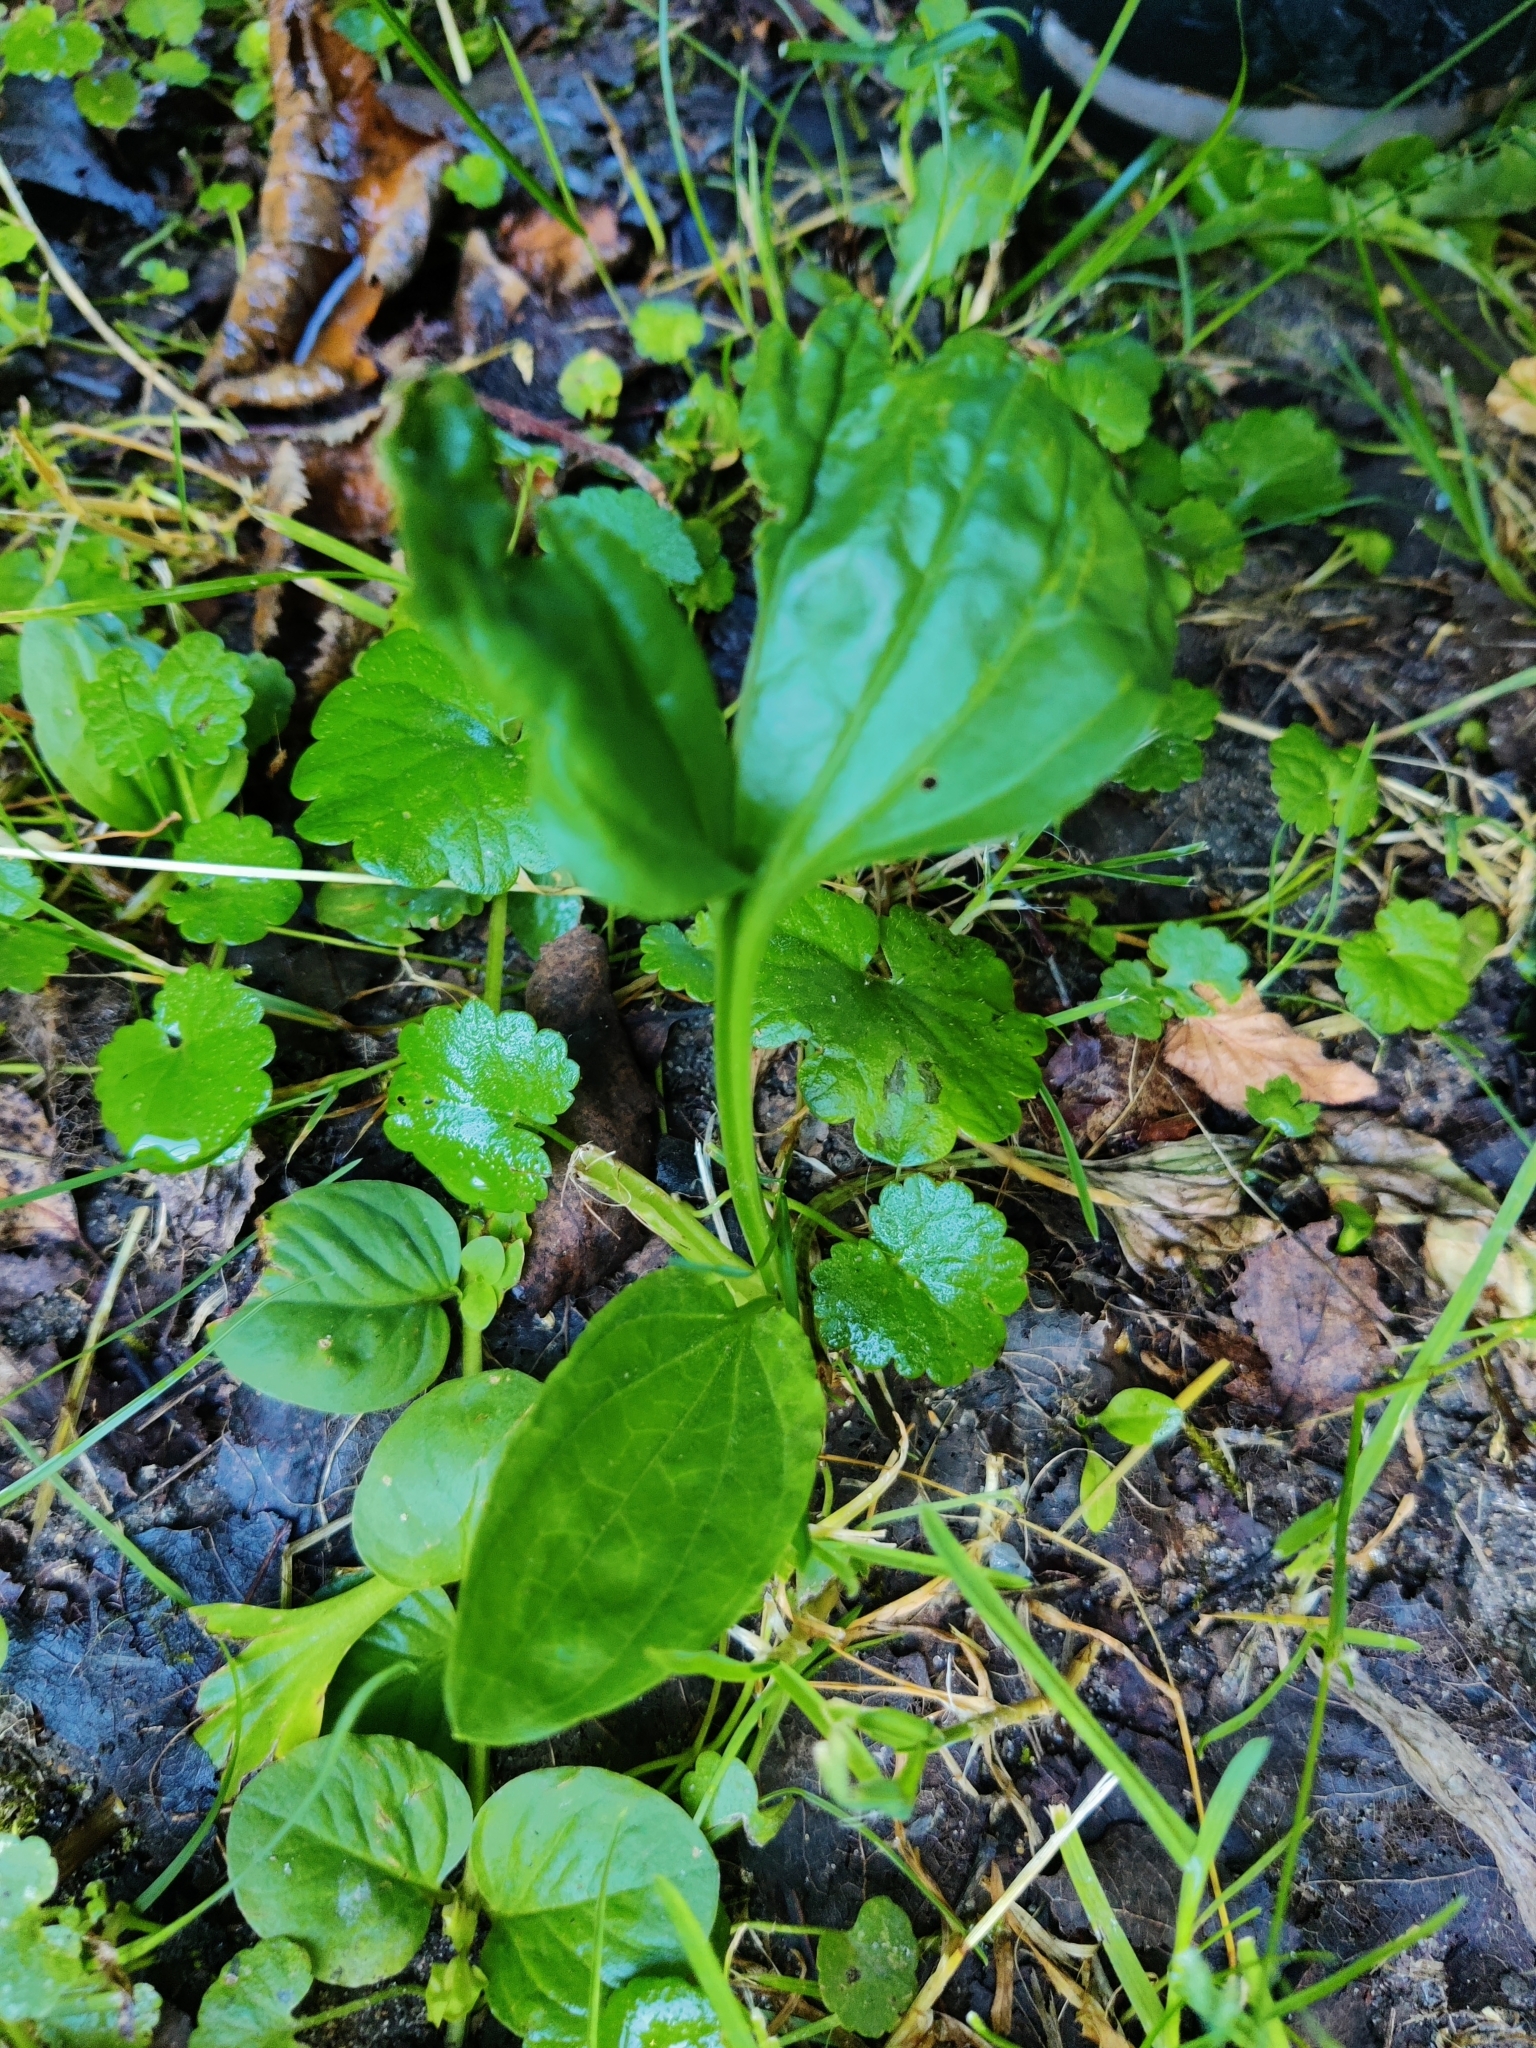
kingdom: Plantae
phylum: Tracheophyta
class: Magnoliopsida
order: Lamiales
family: Plantaginaceae
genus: Plantago
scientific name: Plantago major
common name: Common plantain
